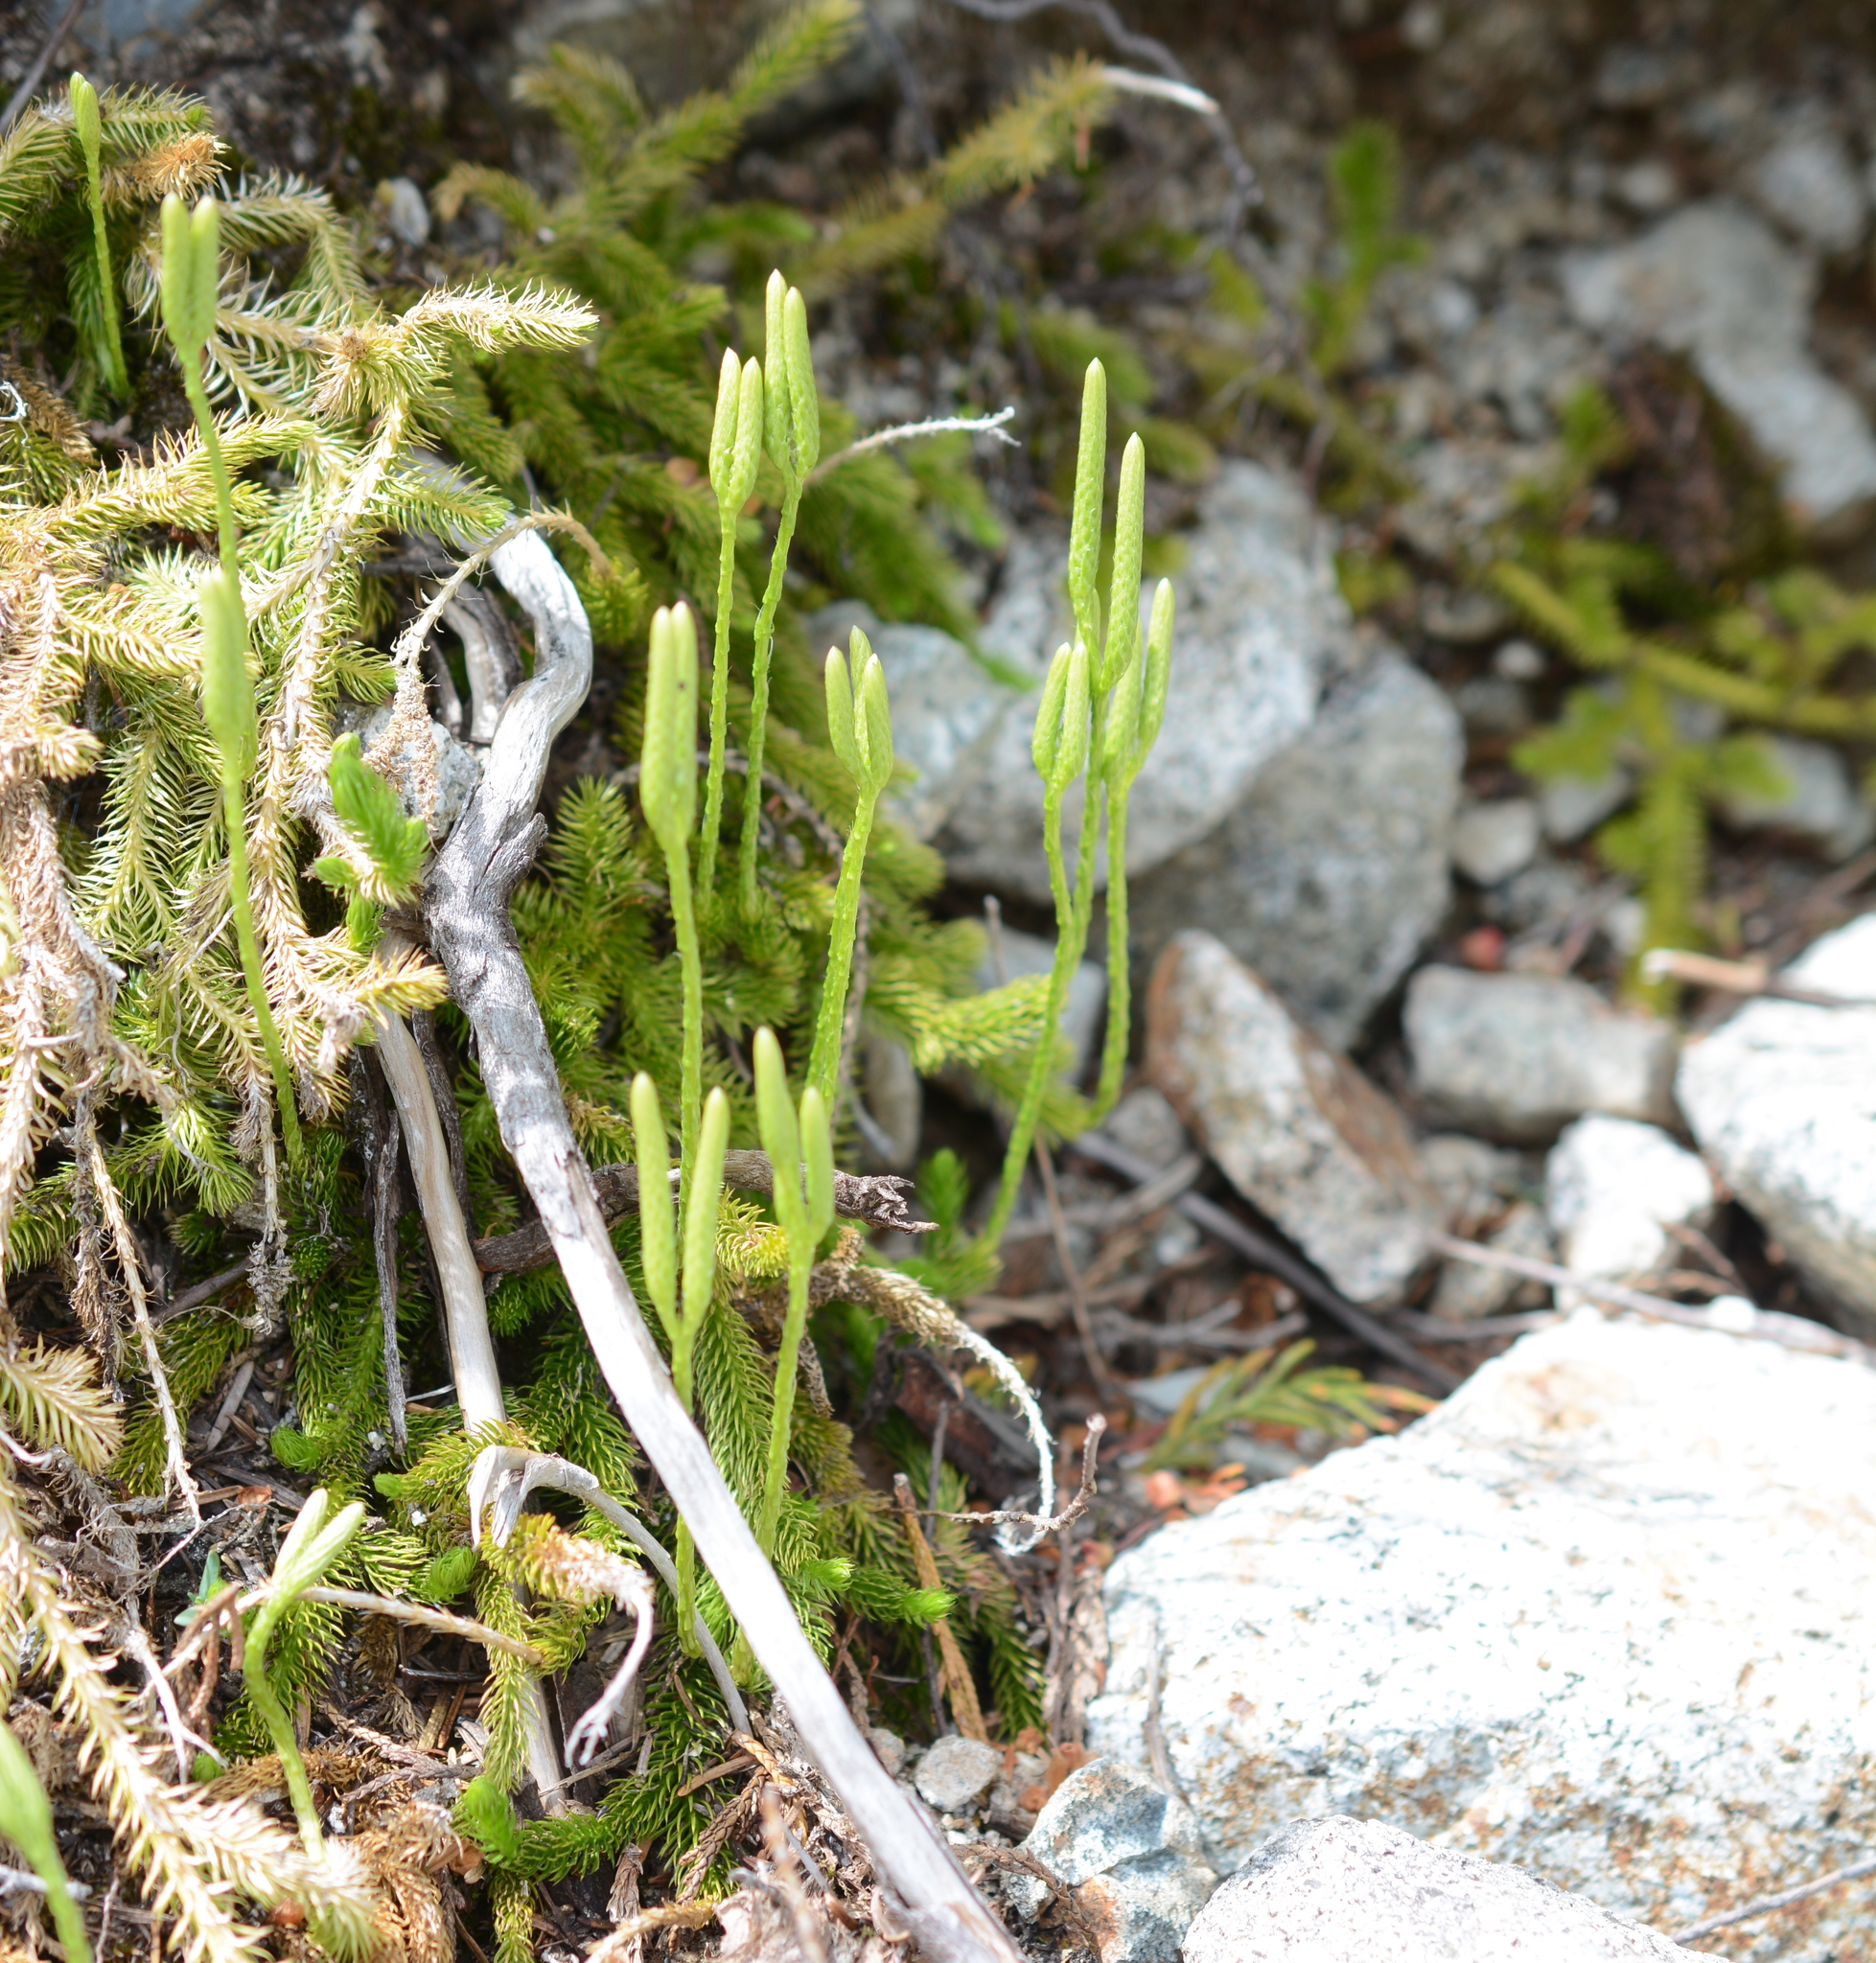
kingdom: Plantae
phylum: Tracheophyta
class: Lycopodiopsida
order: Lycopodiales
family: Lycopodiaceae
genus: Lycopodium
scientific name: Lycopodium clavatum
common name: Stag's-horn clubmoss
